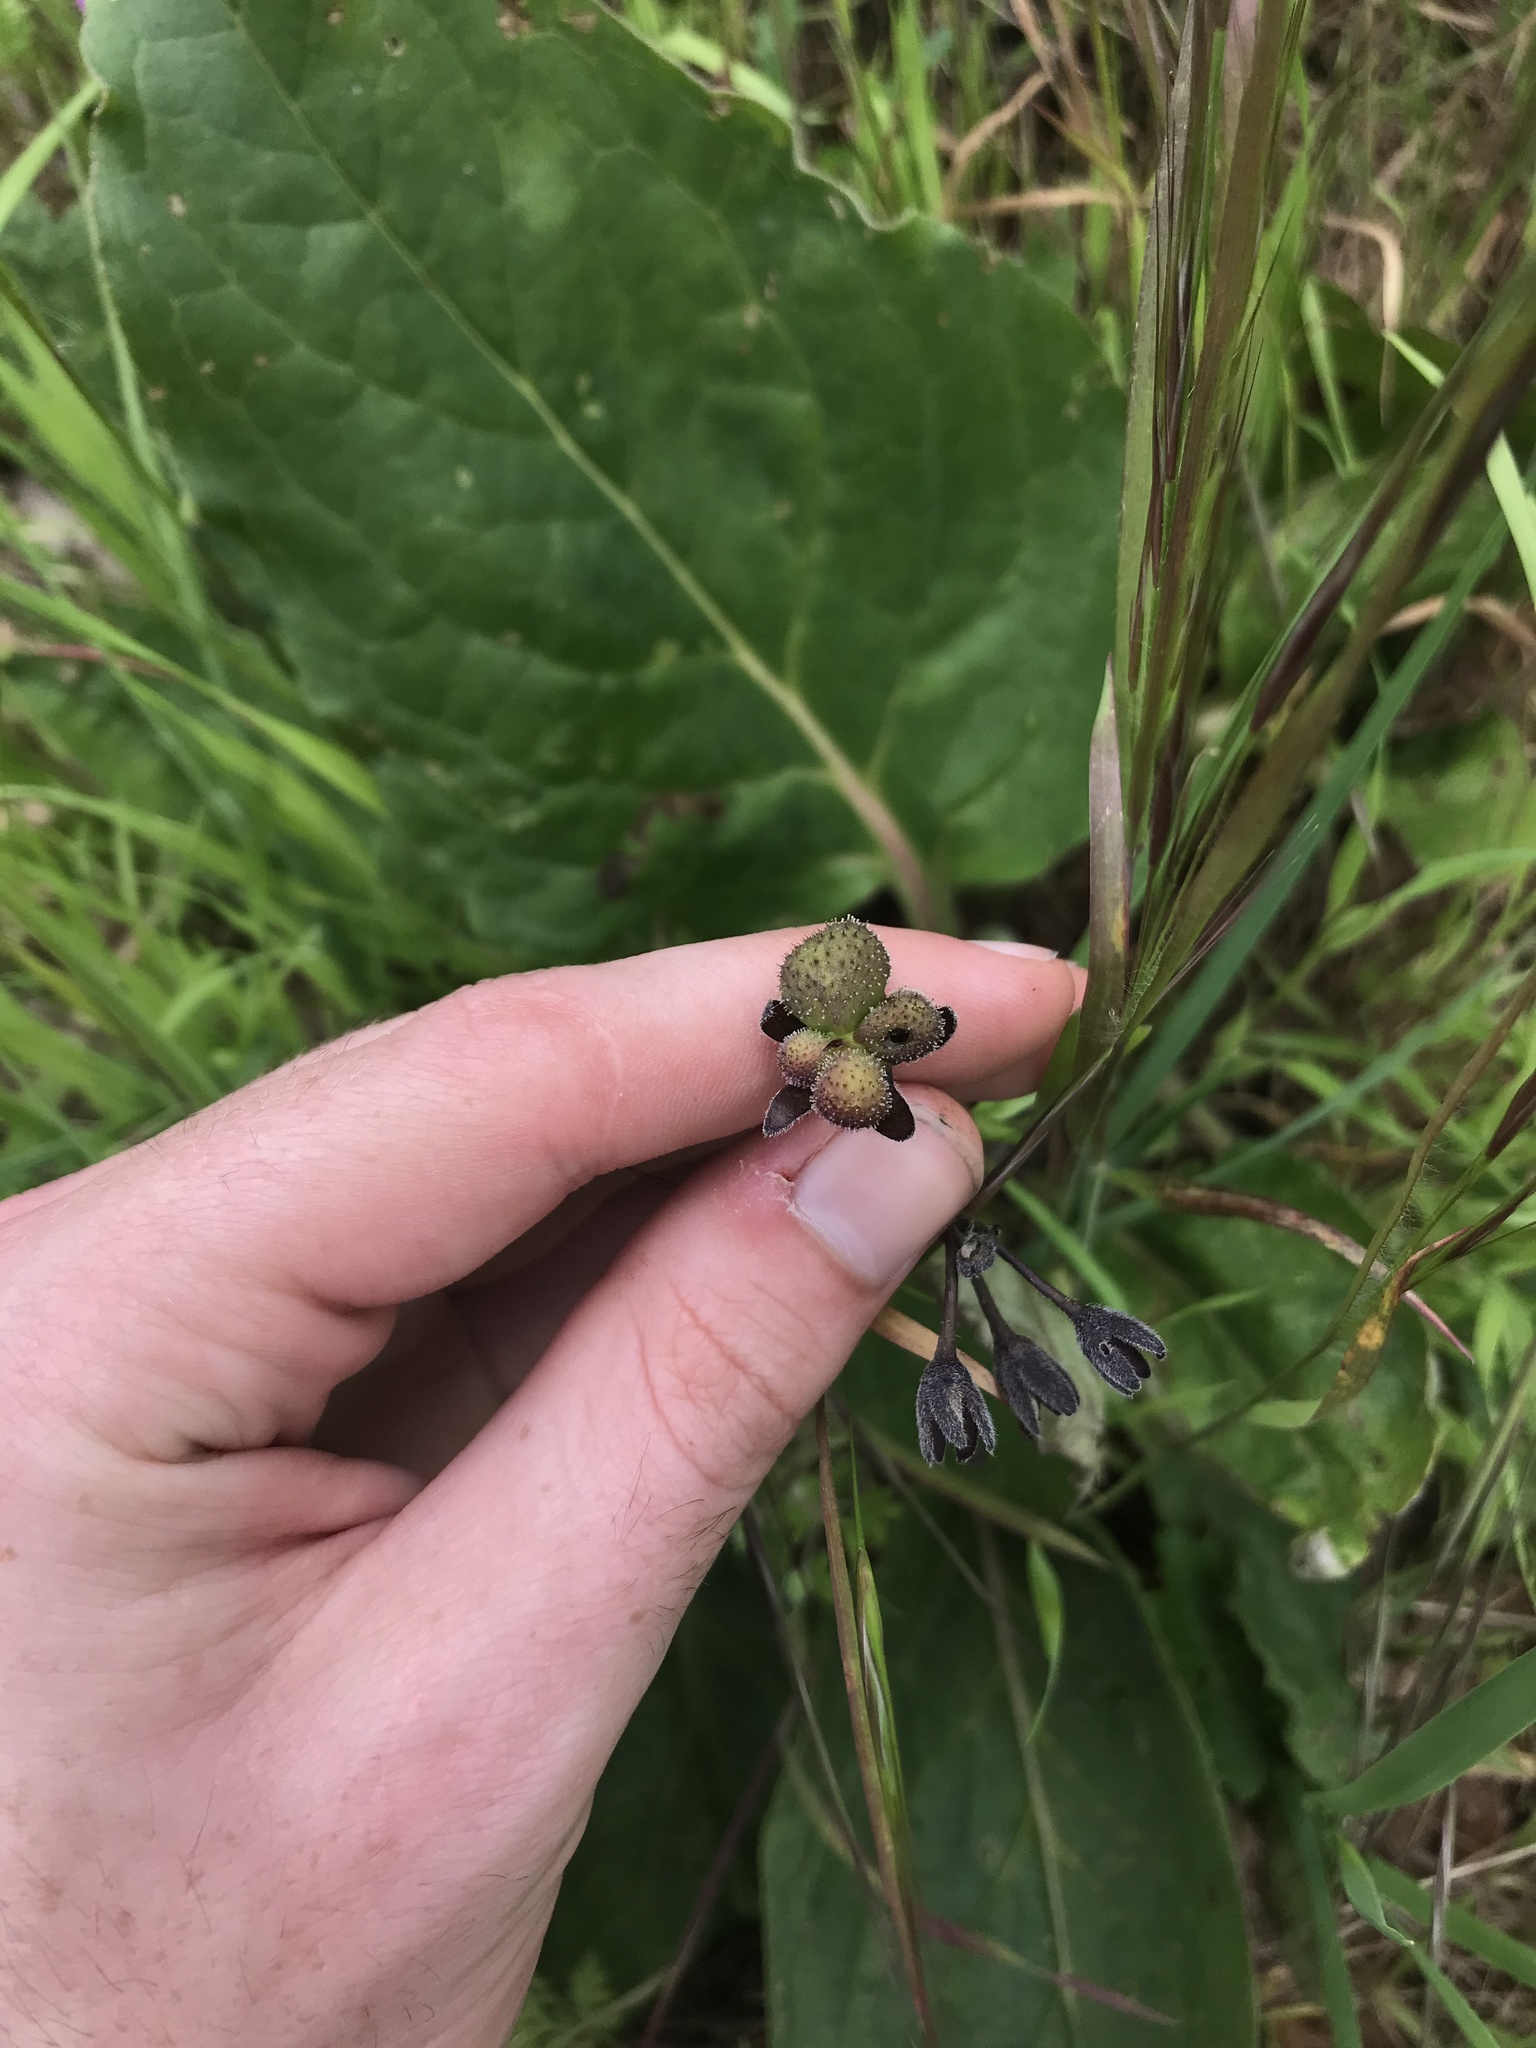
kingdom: Plantae
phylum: Tracheophyta
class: Magnoliopsida
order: Boraginales
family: Boraginaceae
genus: Adelinia
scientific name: Adelinia grande
